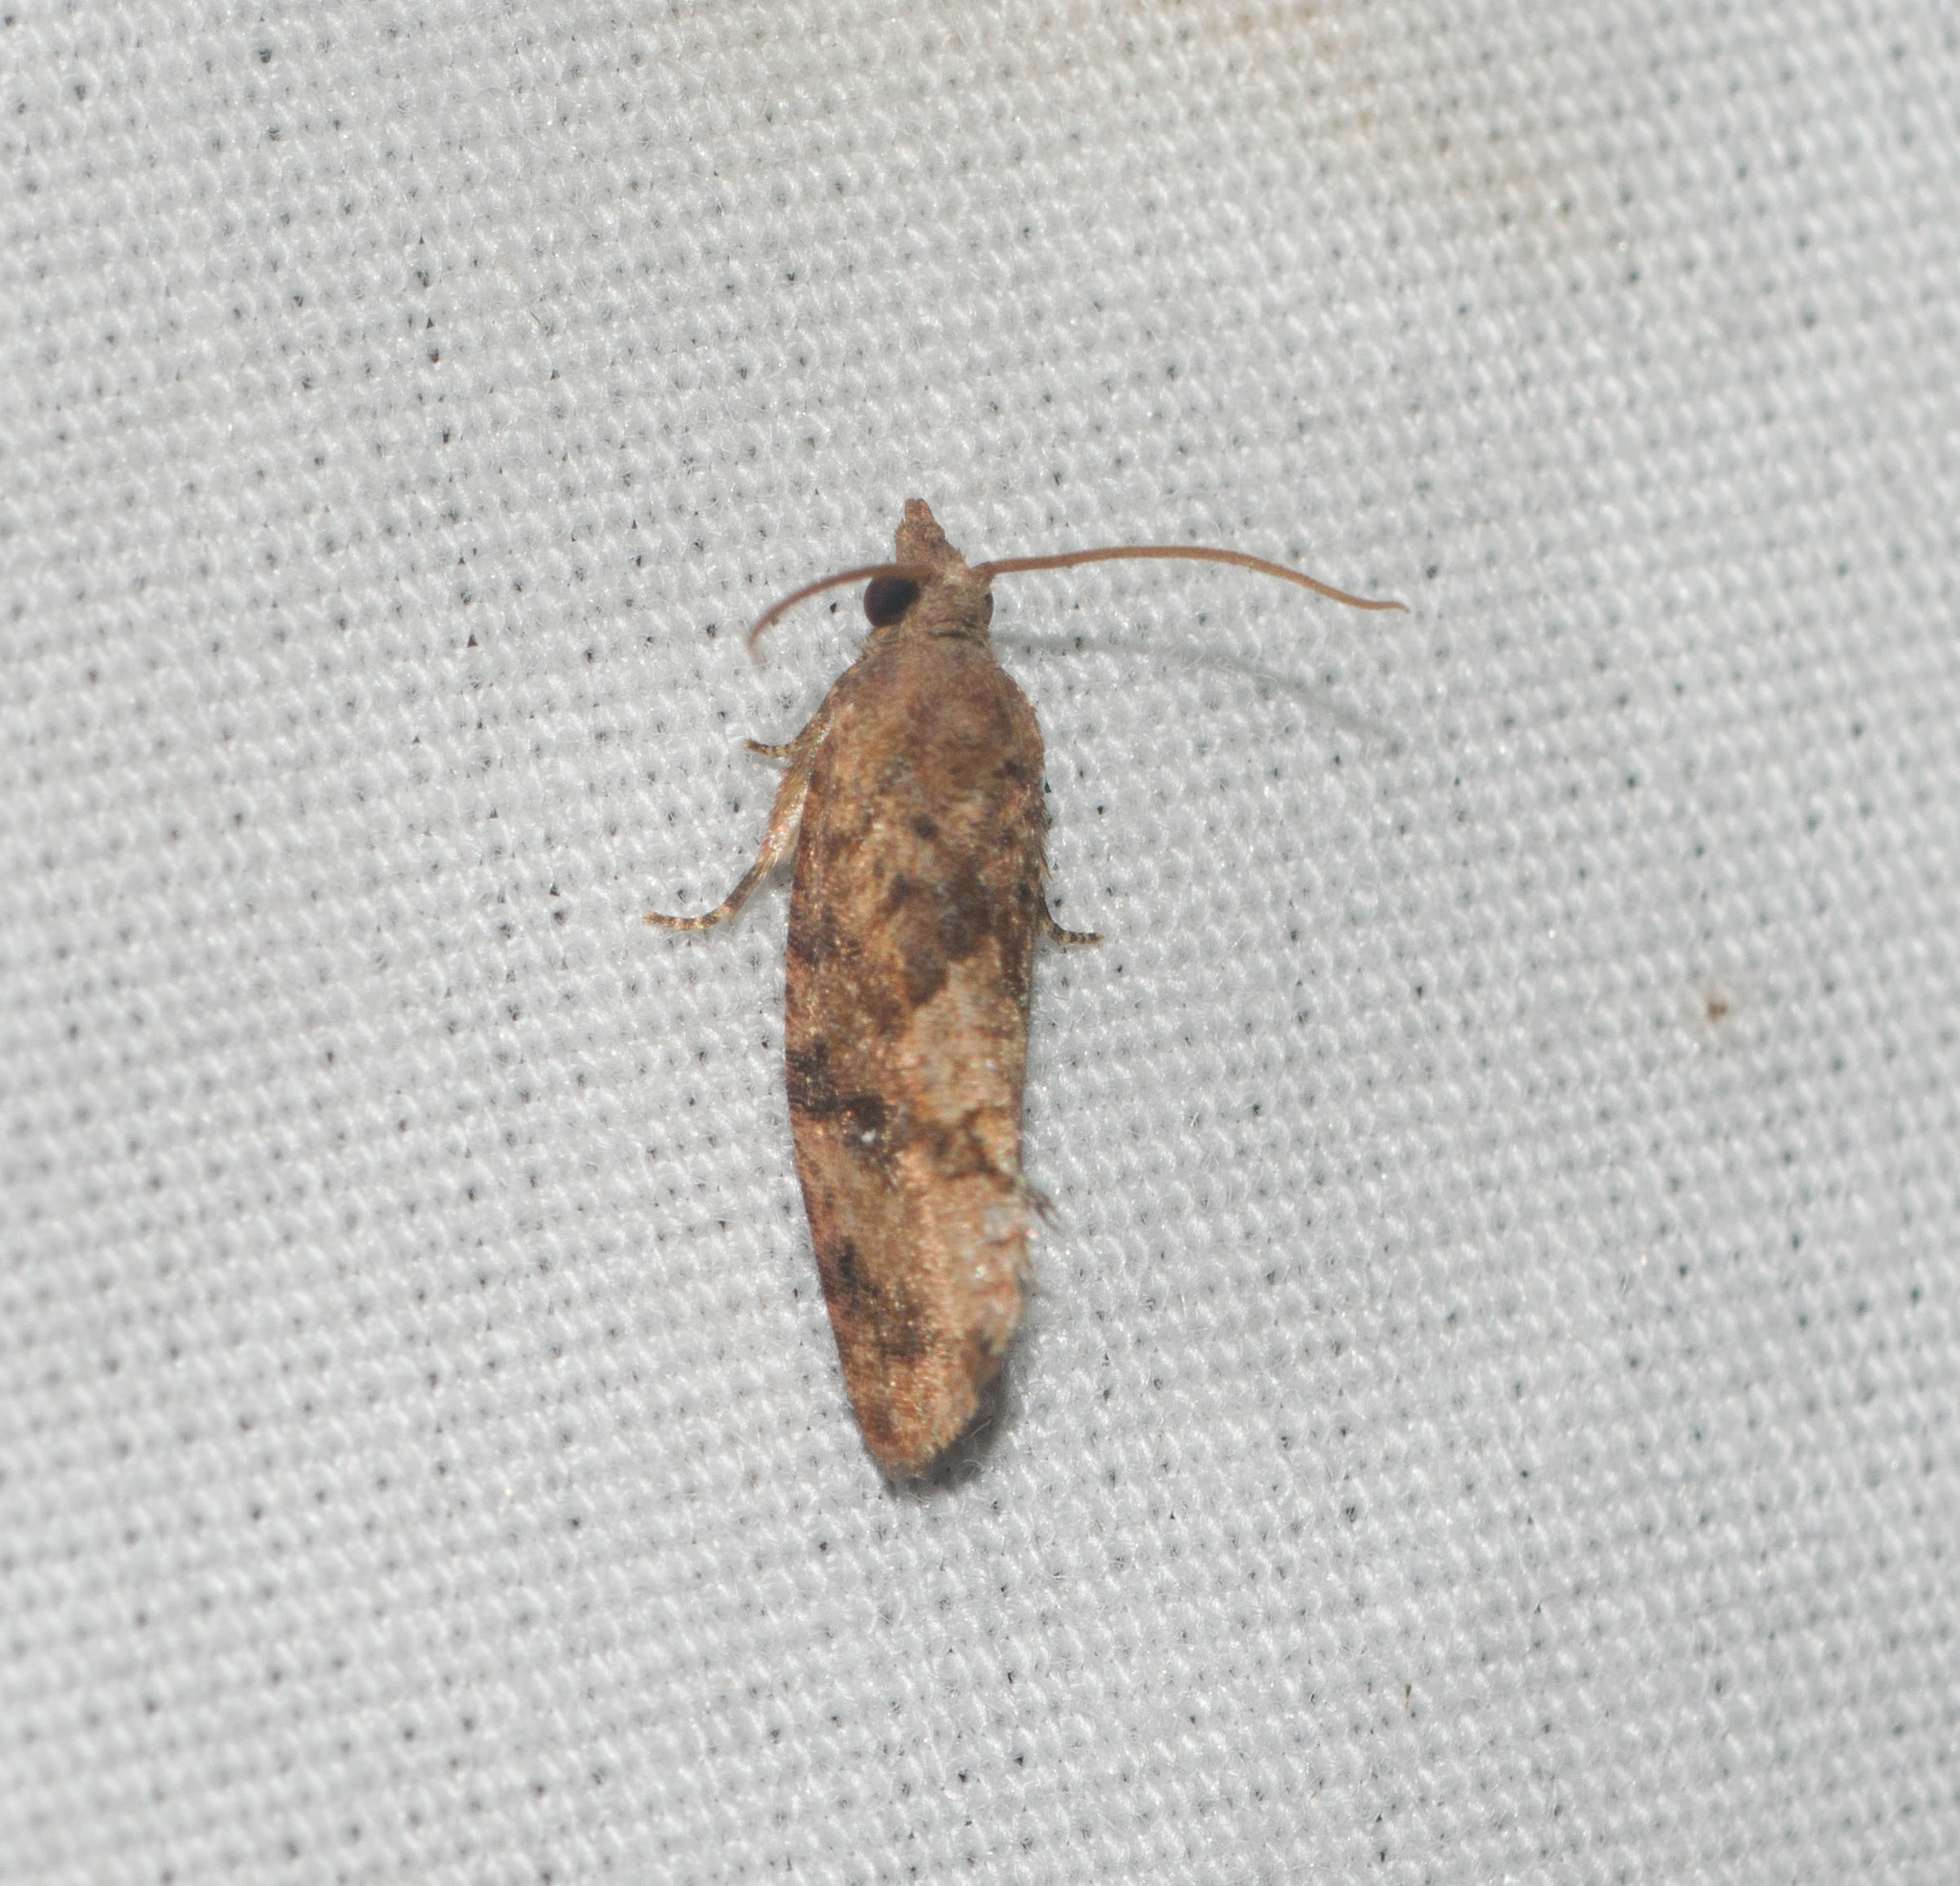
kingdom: Animalia
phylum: Arthropoda
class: Insecta
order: Lepidoptera
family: Tortricidae
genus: Cryptophlebia
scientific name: Cryptophlebia illepida
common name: Moth
